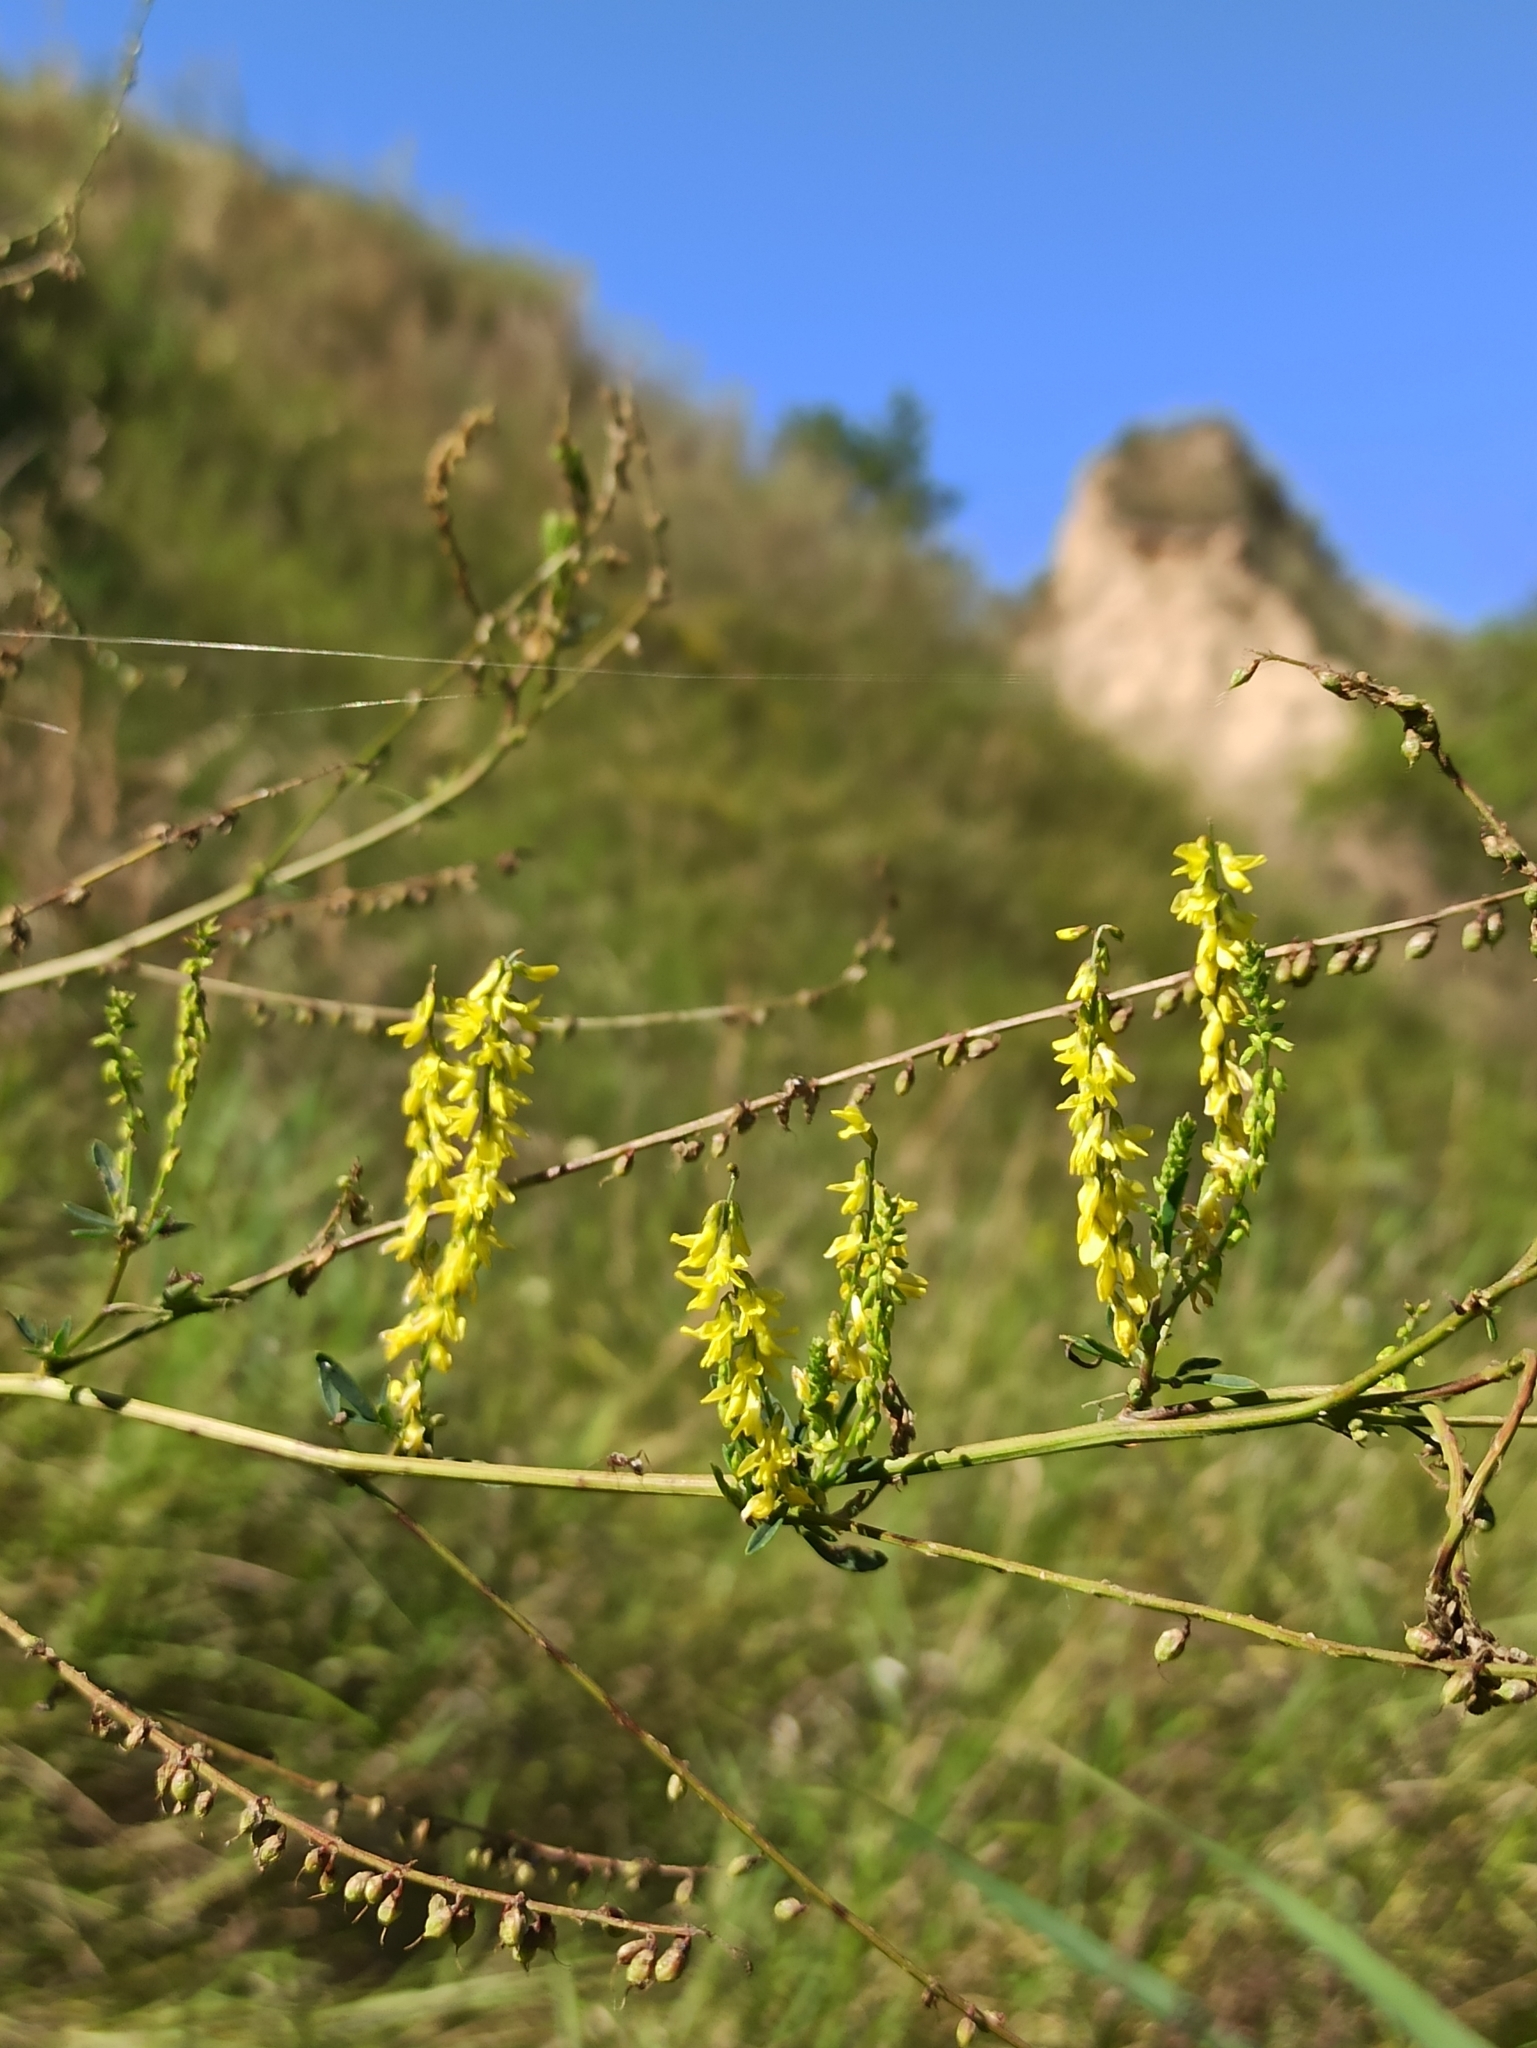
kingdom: Plantae
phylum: Tracheophyta
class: Magnoliopsida
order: Fabales
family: Fabaceae
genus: Melilotus
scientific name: Melilotus officinalis
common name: Sweetclover
